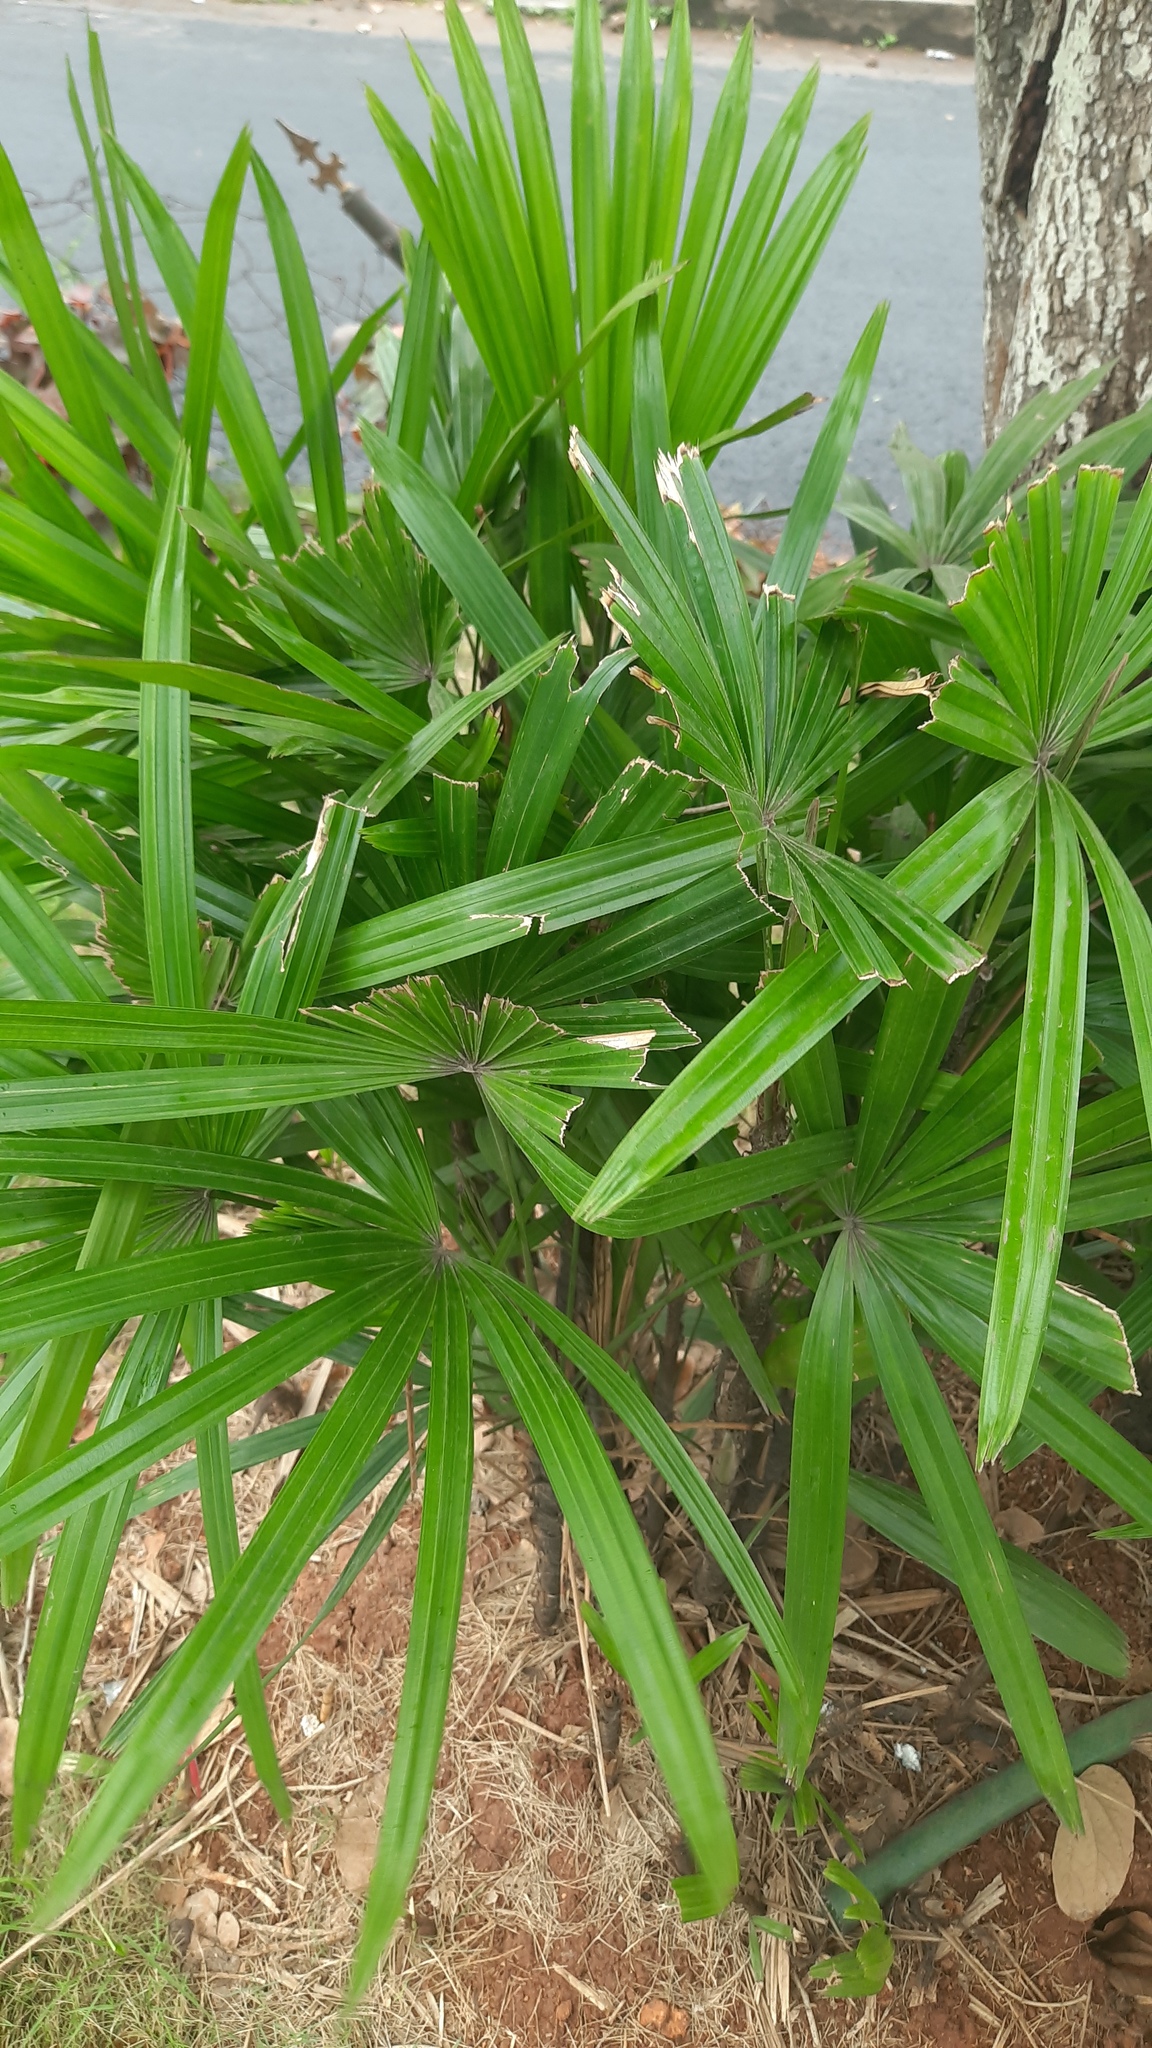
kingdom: Plantae
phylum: Tracheophyta
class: Liliopsida
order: Arecales
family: Arecaceae
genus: Rhapis
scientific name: Rhapis excelsa
